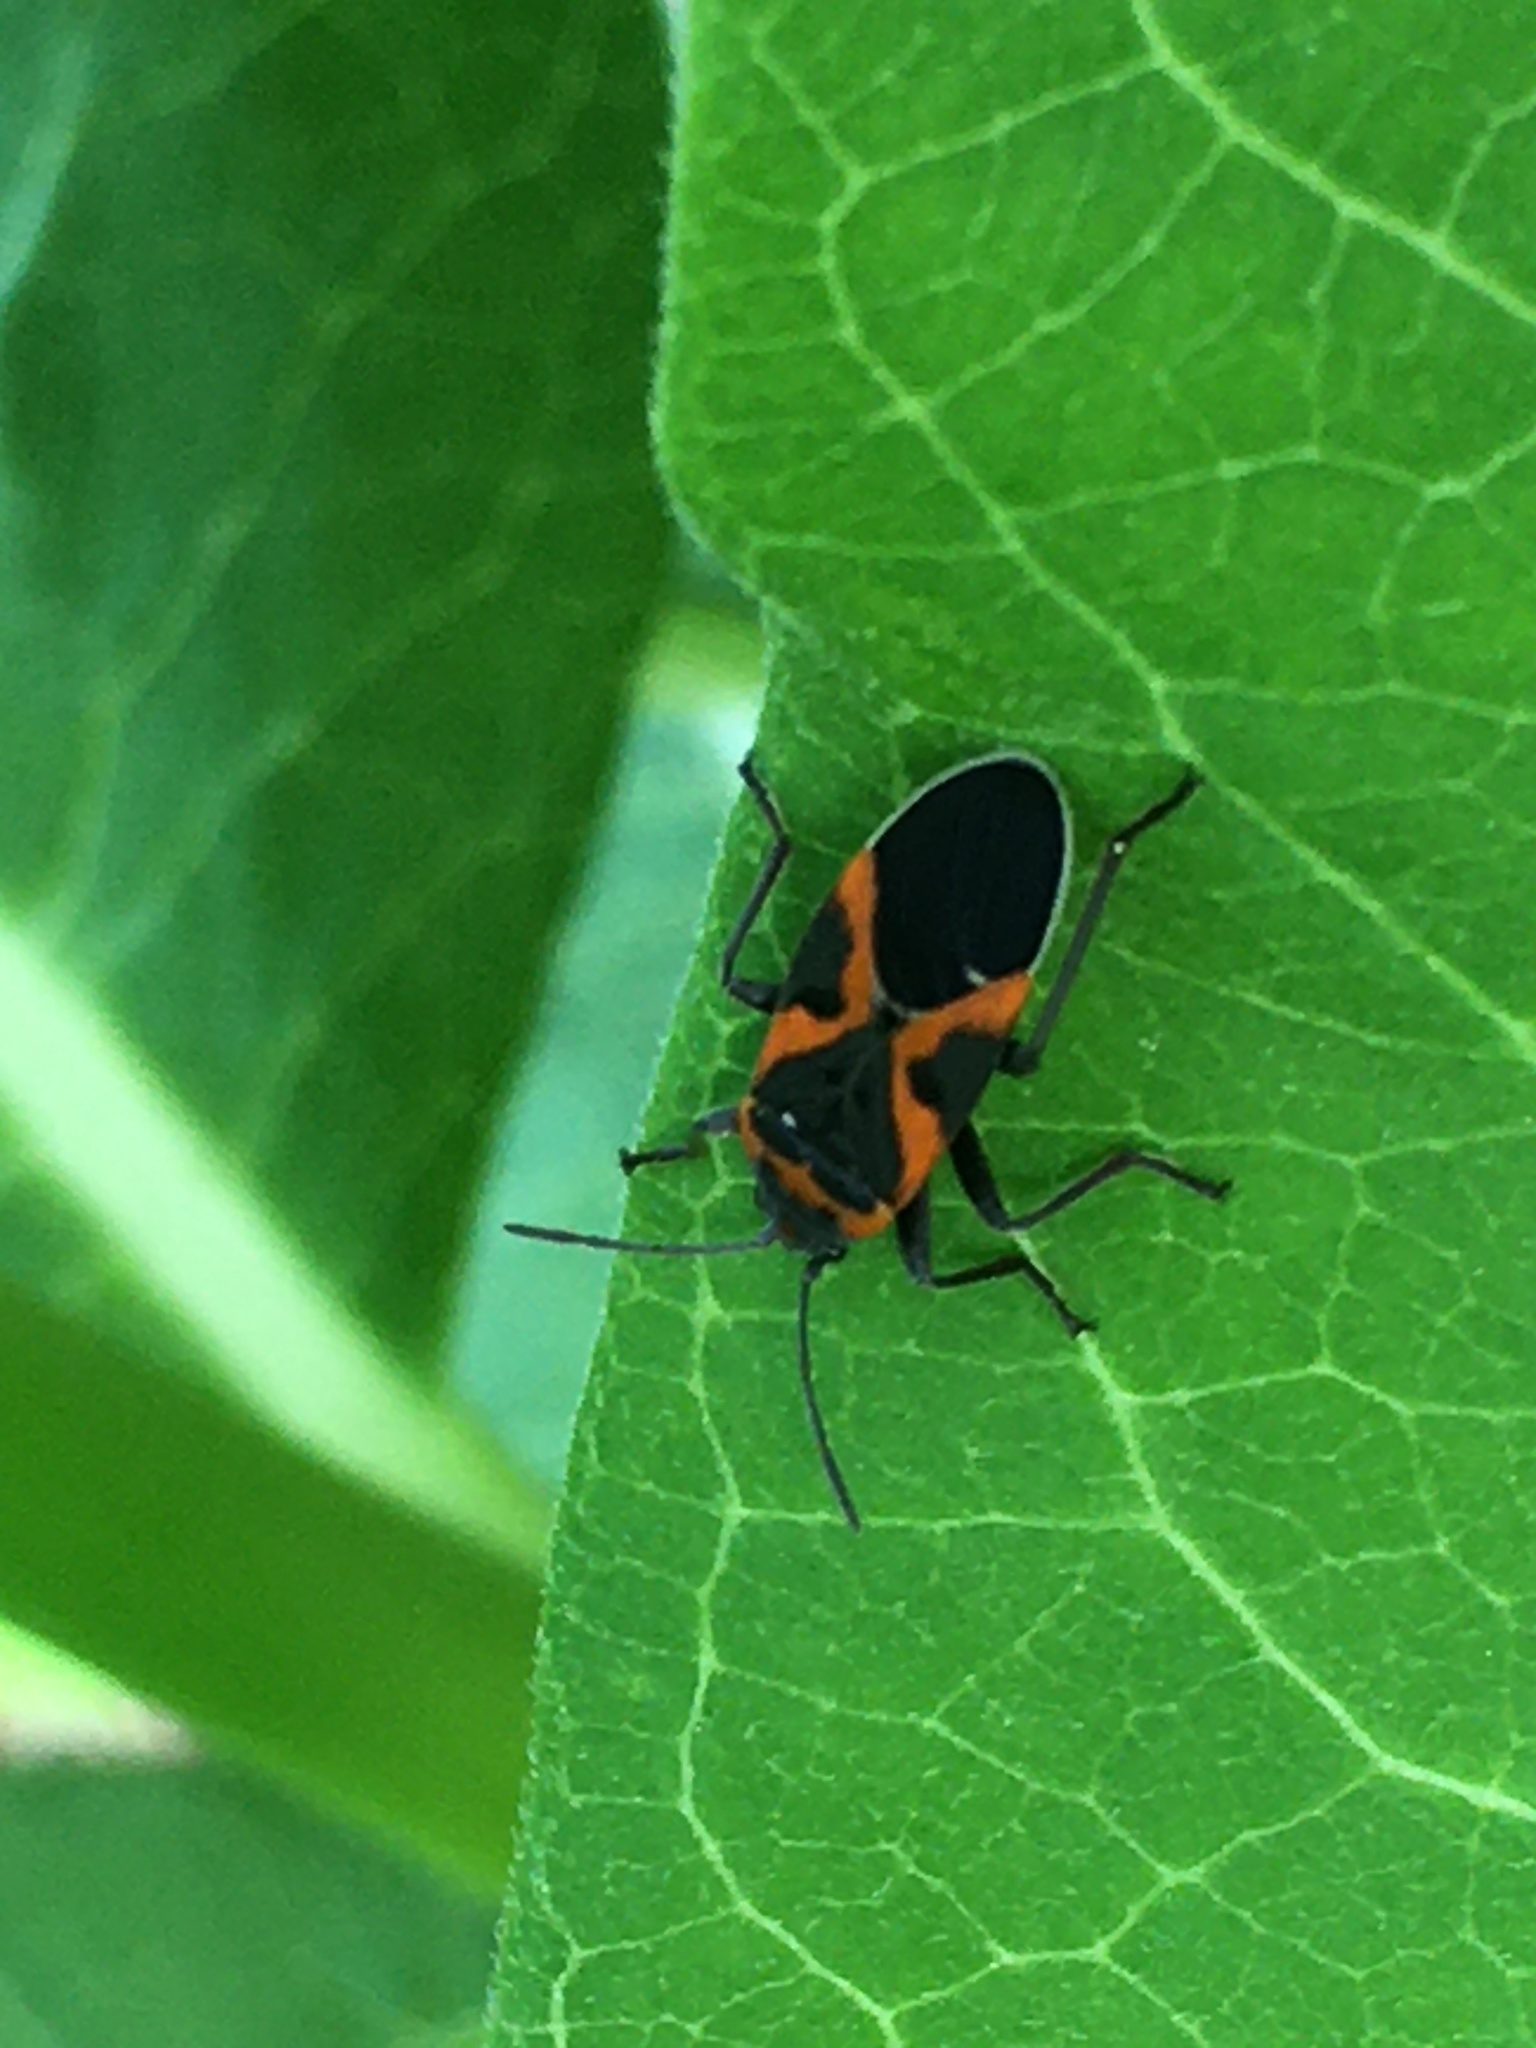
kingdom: Animalia
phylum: Arthropoda
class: Insecta
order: Hemiptera
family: Lygaeidae
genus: Lygaeus
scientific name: Lygaeus kalmii
